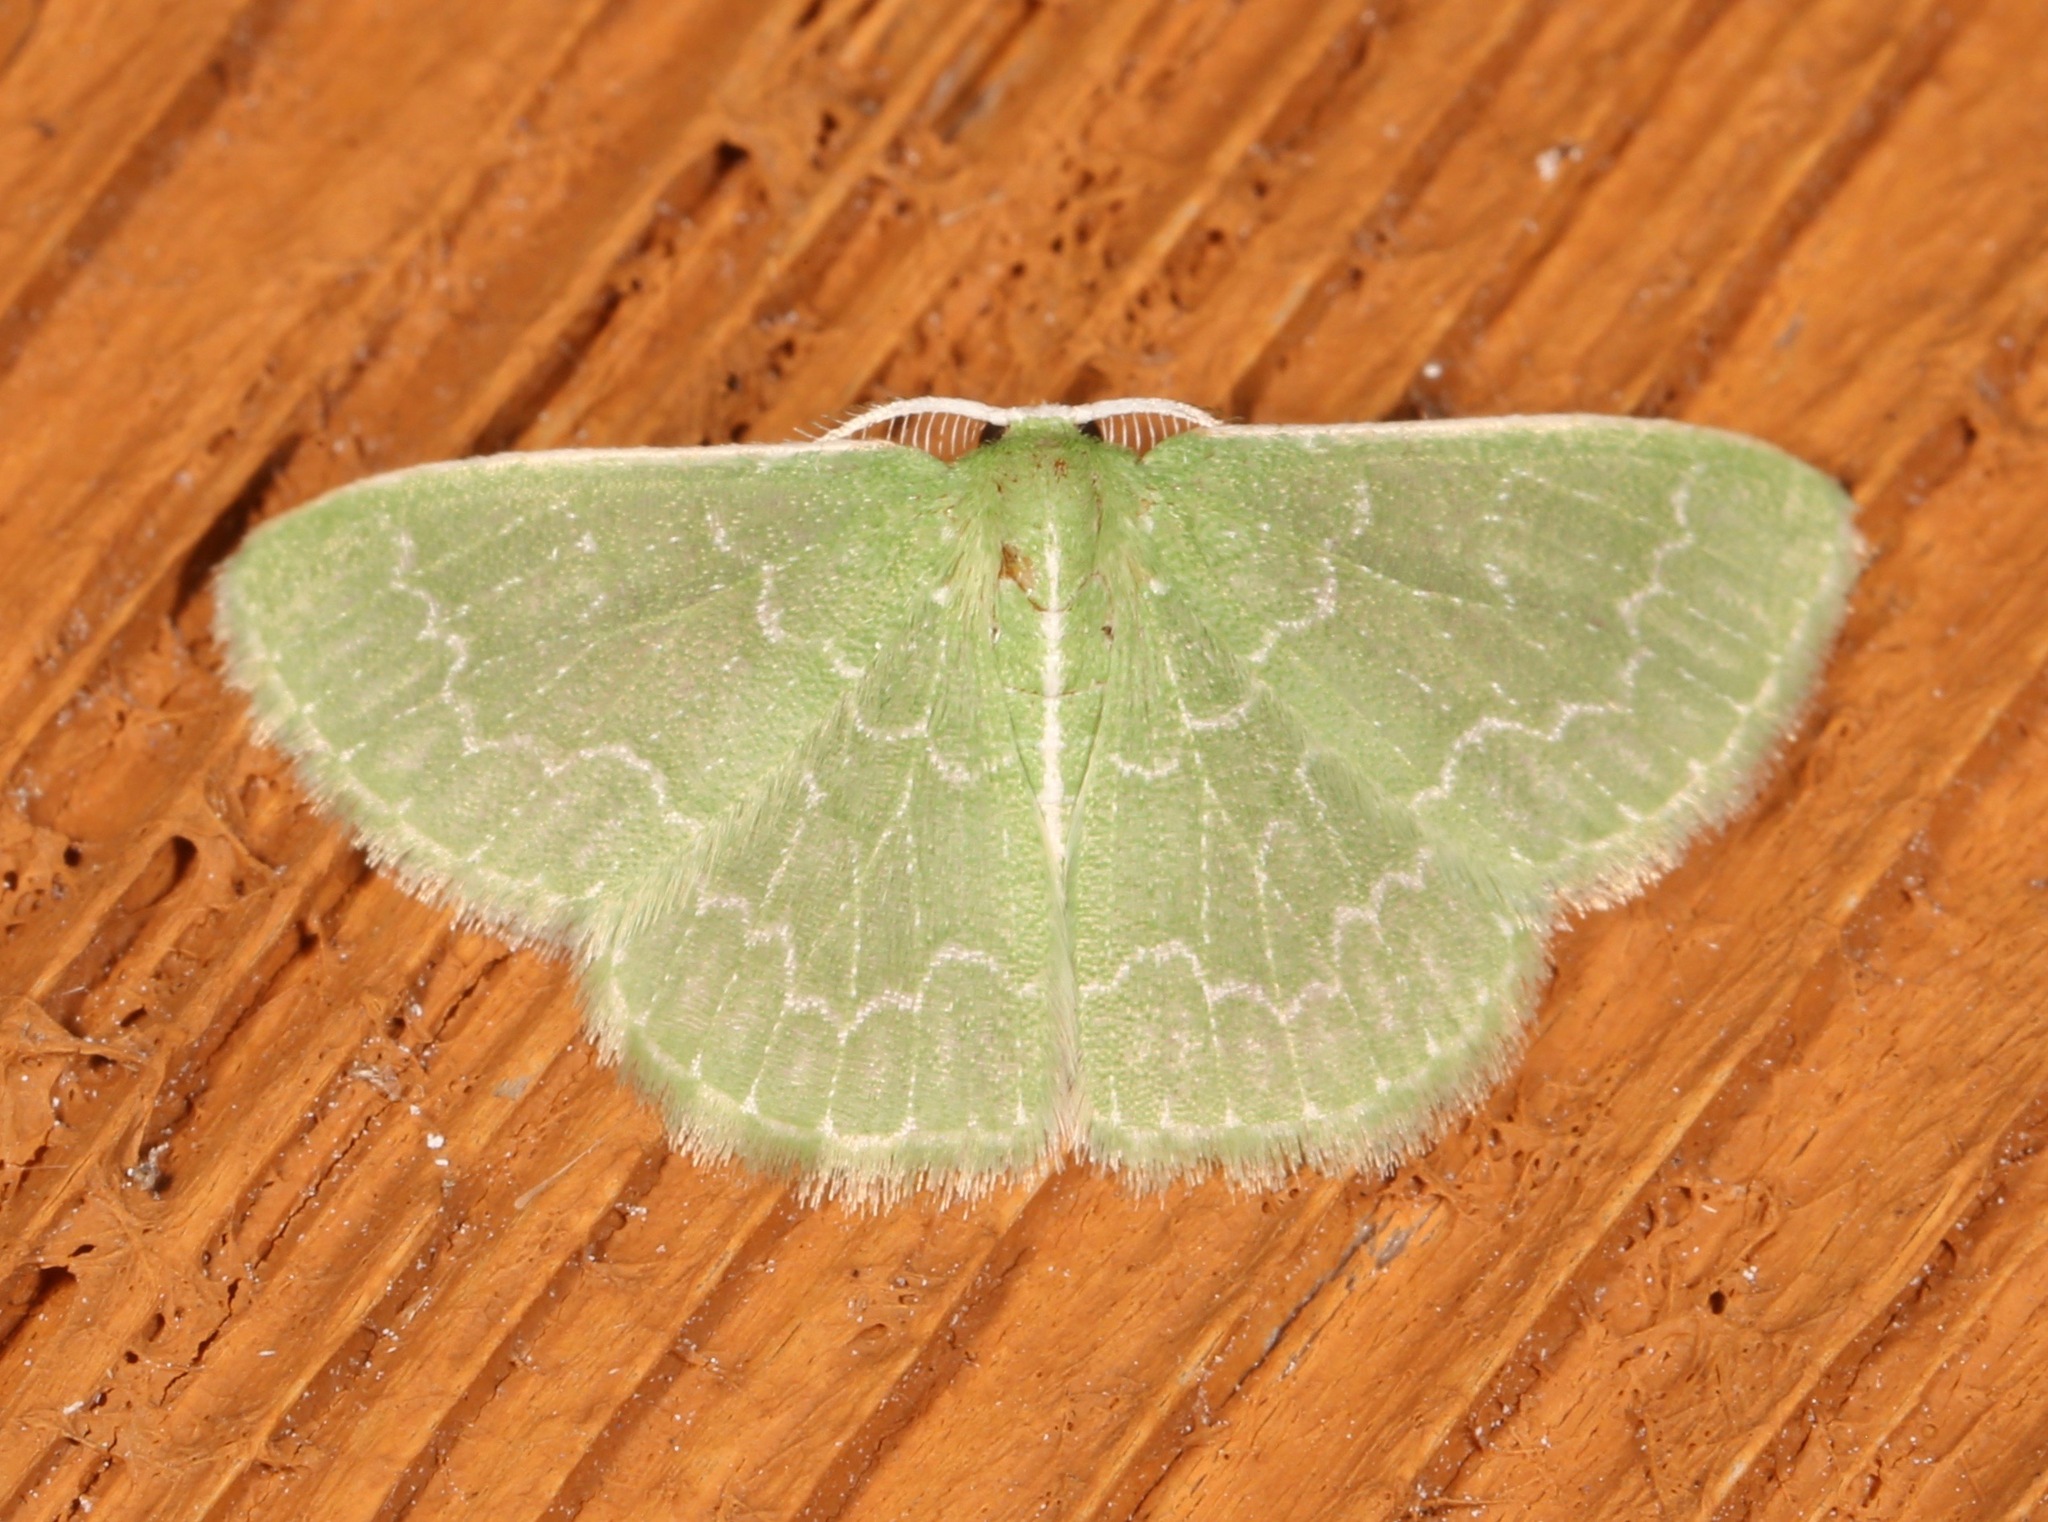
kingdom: Animalia
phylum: Arthropoda
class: Insecta
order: Lepidoptera
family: Geometridae
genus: Synchlora
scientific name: Synchlora frondaria
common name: Southern emerald
